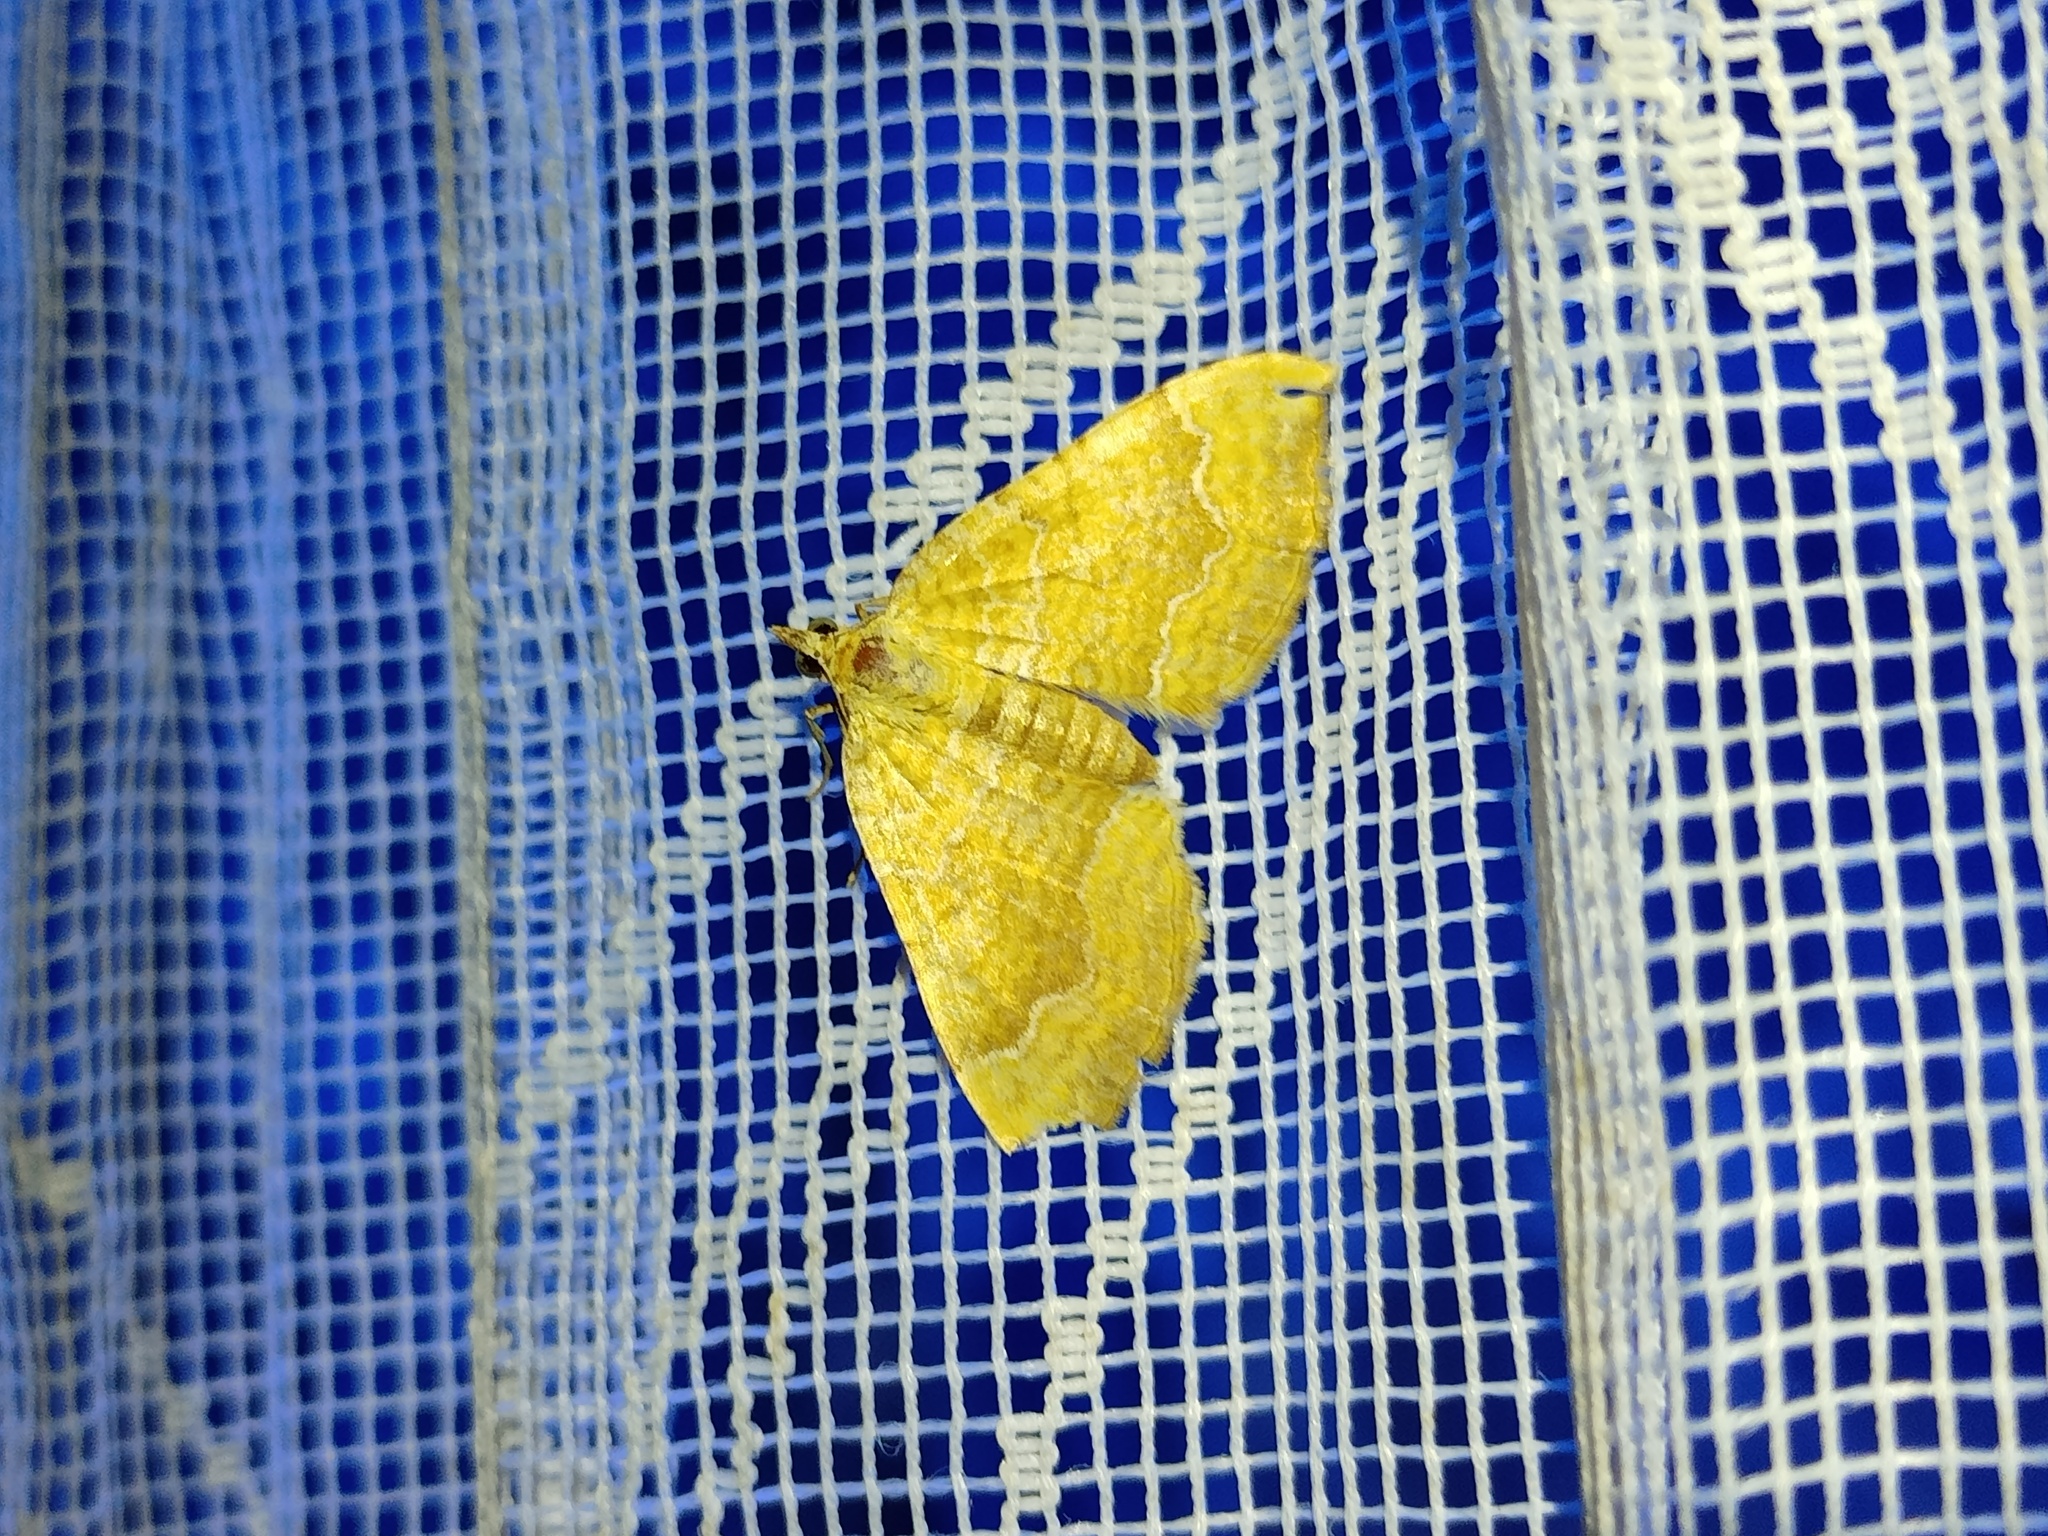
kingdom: Animalia
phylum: Arthropoda
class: Insecta
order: Lepidoptera
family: Geometridae
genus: Camptogramma
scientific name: Camptogramma bilineata
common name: Yellow shell
